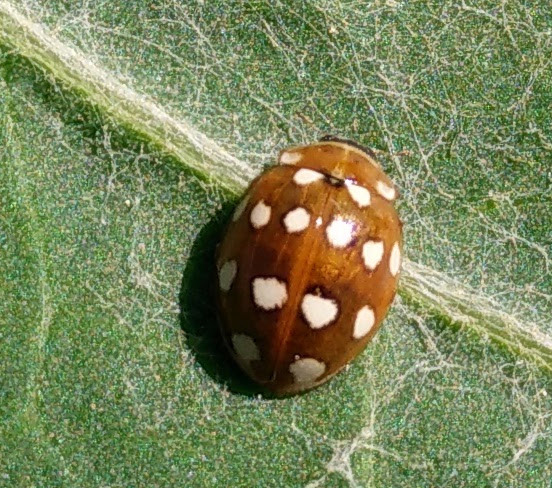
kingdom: Animalia
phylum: Arthropoda
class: Insecta
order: Coleoptera
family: Coccinellidae
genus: Calvia
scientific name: Calvia quatuordecimguttata
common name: Cream-spot ladybird
